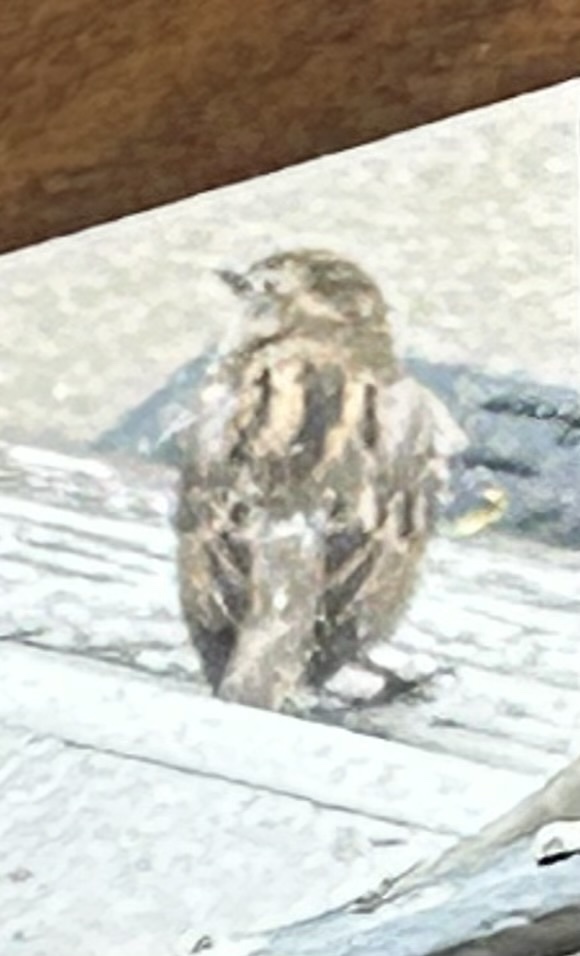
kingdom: Animalia
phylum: Chordata
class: Aves
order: Passeriformes
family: Passeridae
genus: Passer
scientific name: Passer domesticus
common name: House sparrow
